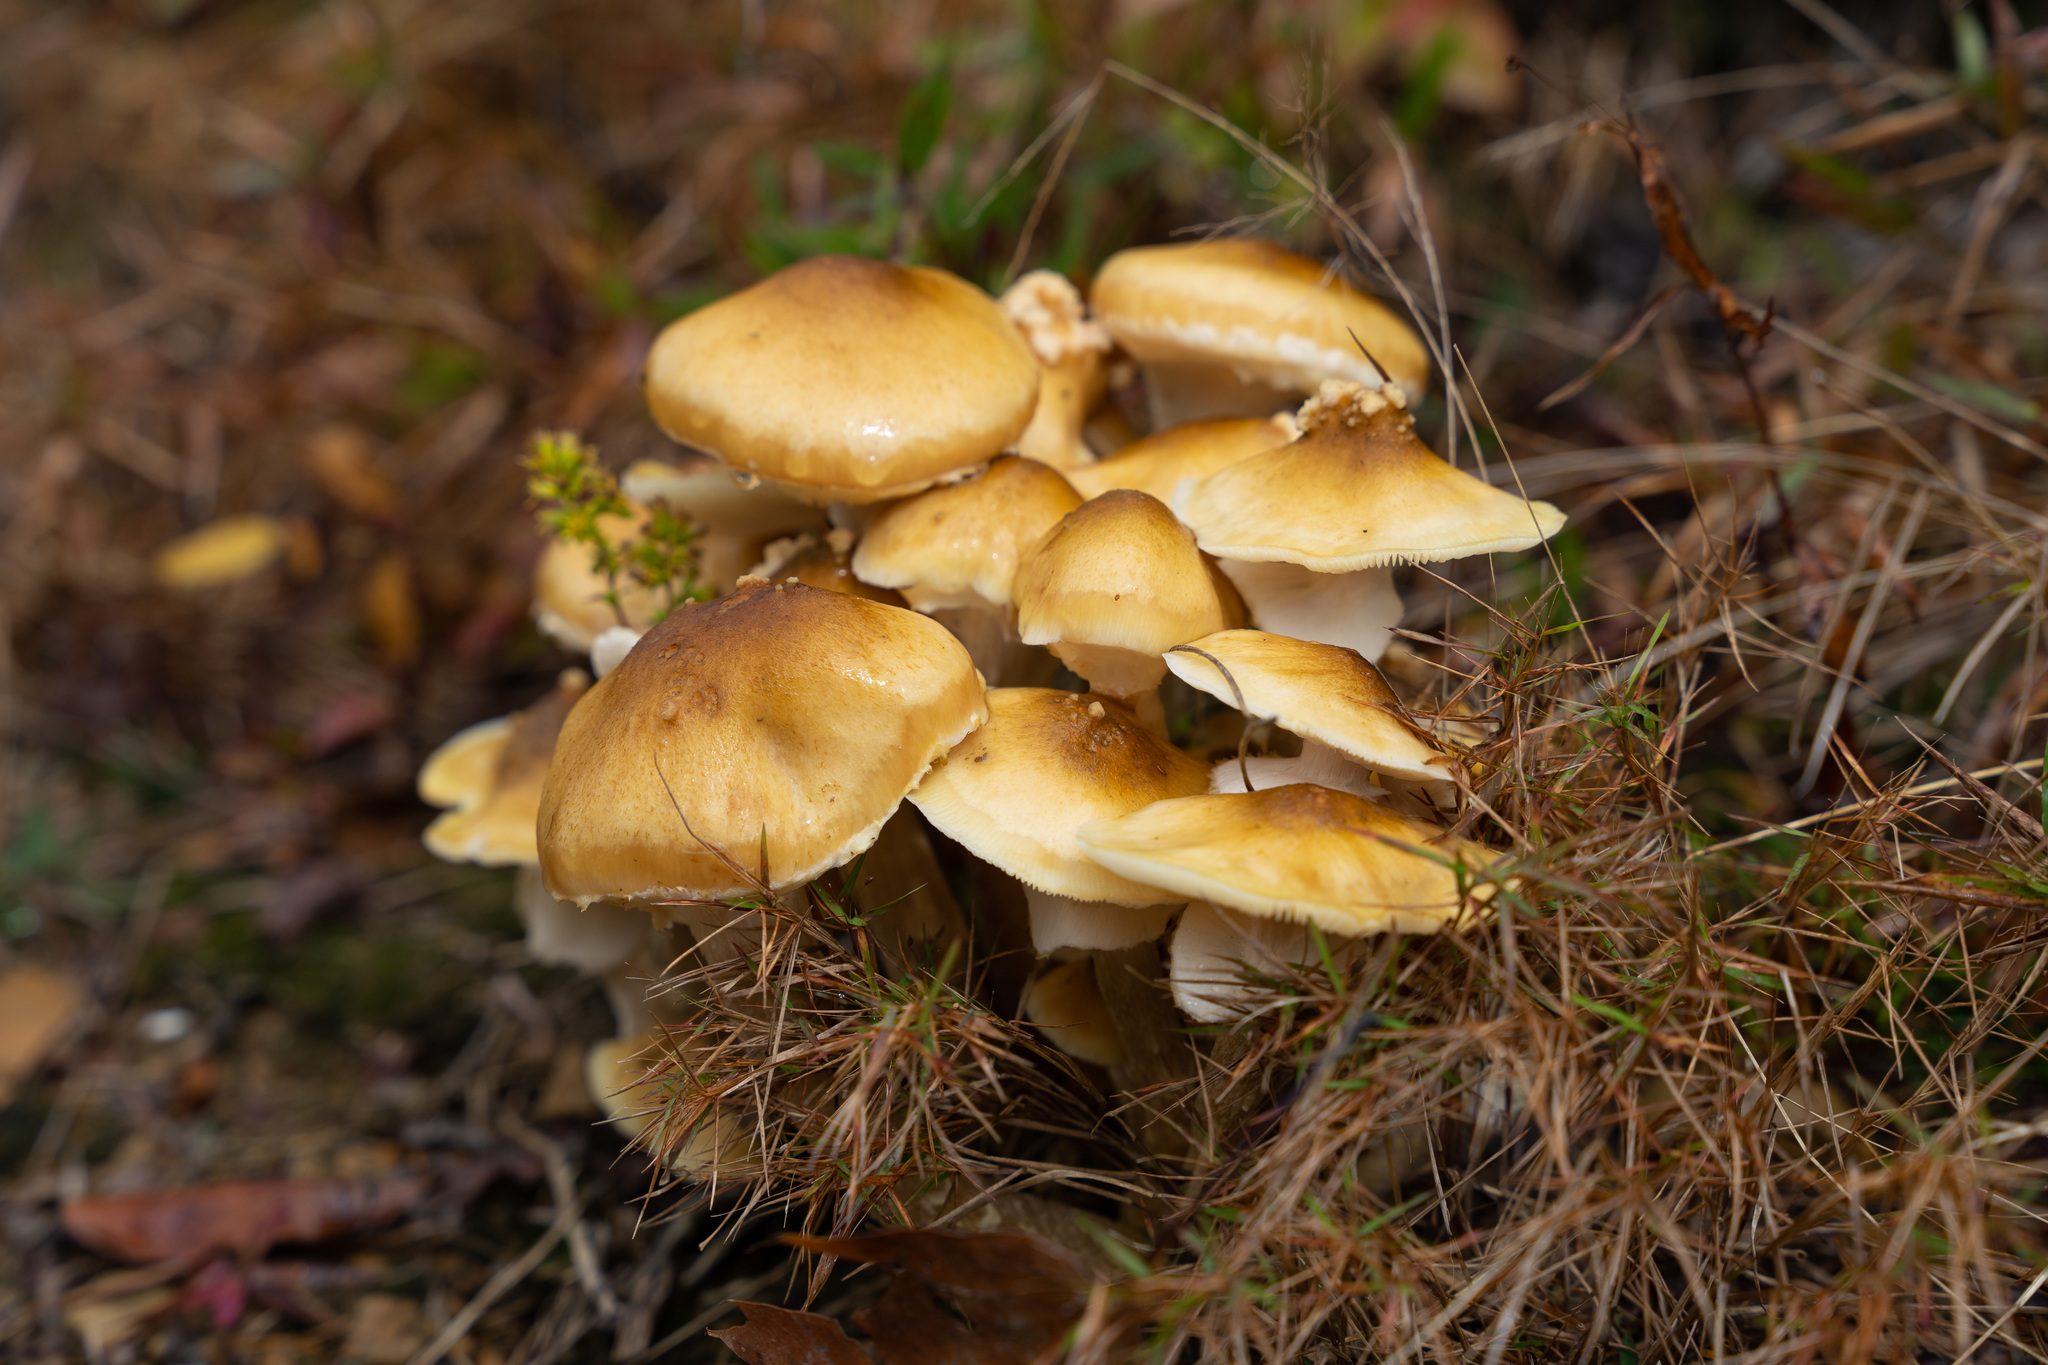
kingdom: Fungi
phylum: Basidiomycota
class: Agaricomycetes
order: Agaricales
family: Physalacriaceae
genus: Armillaria
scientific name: Armillaria mellea
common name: Honey fungus
